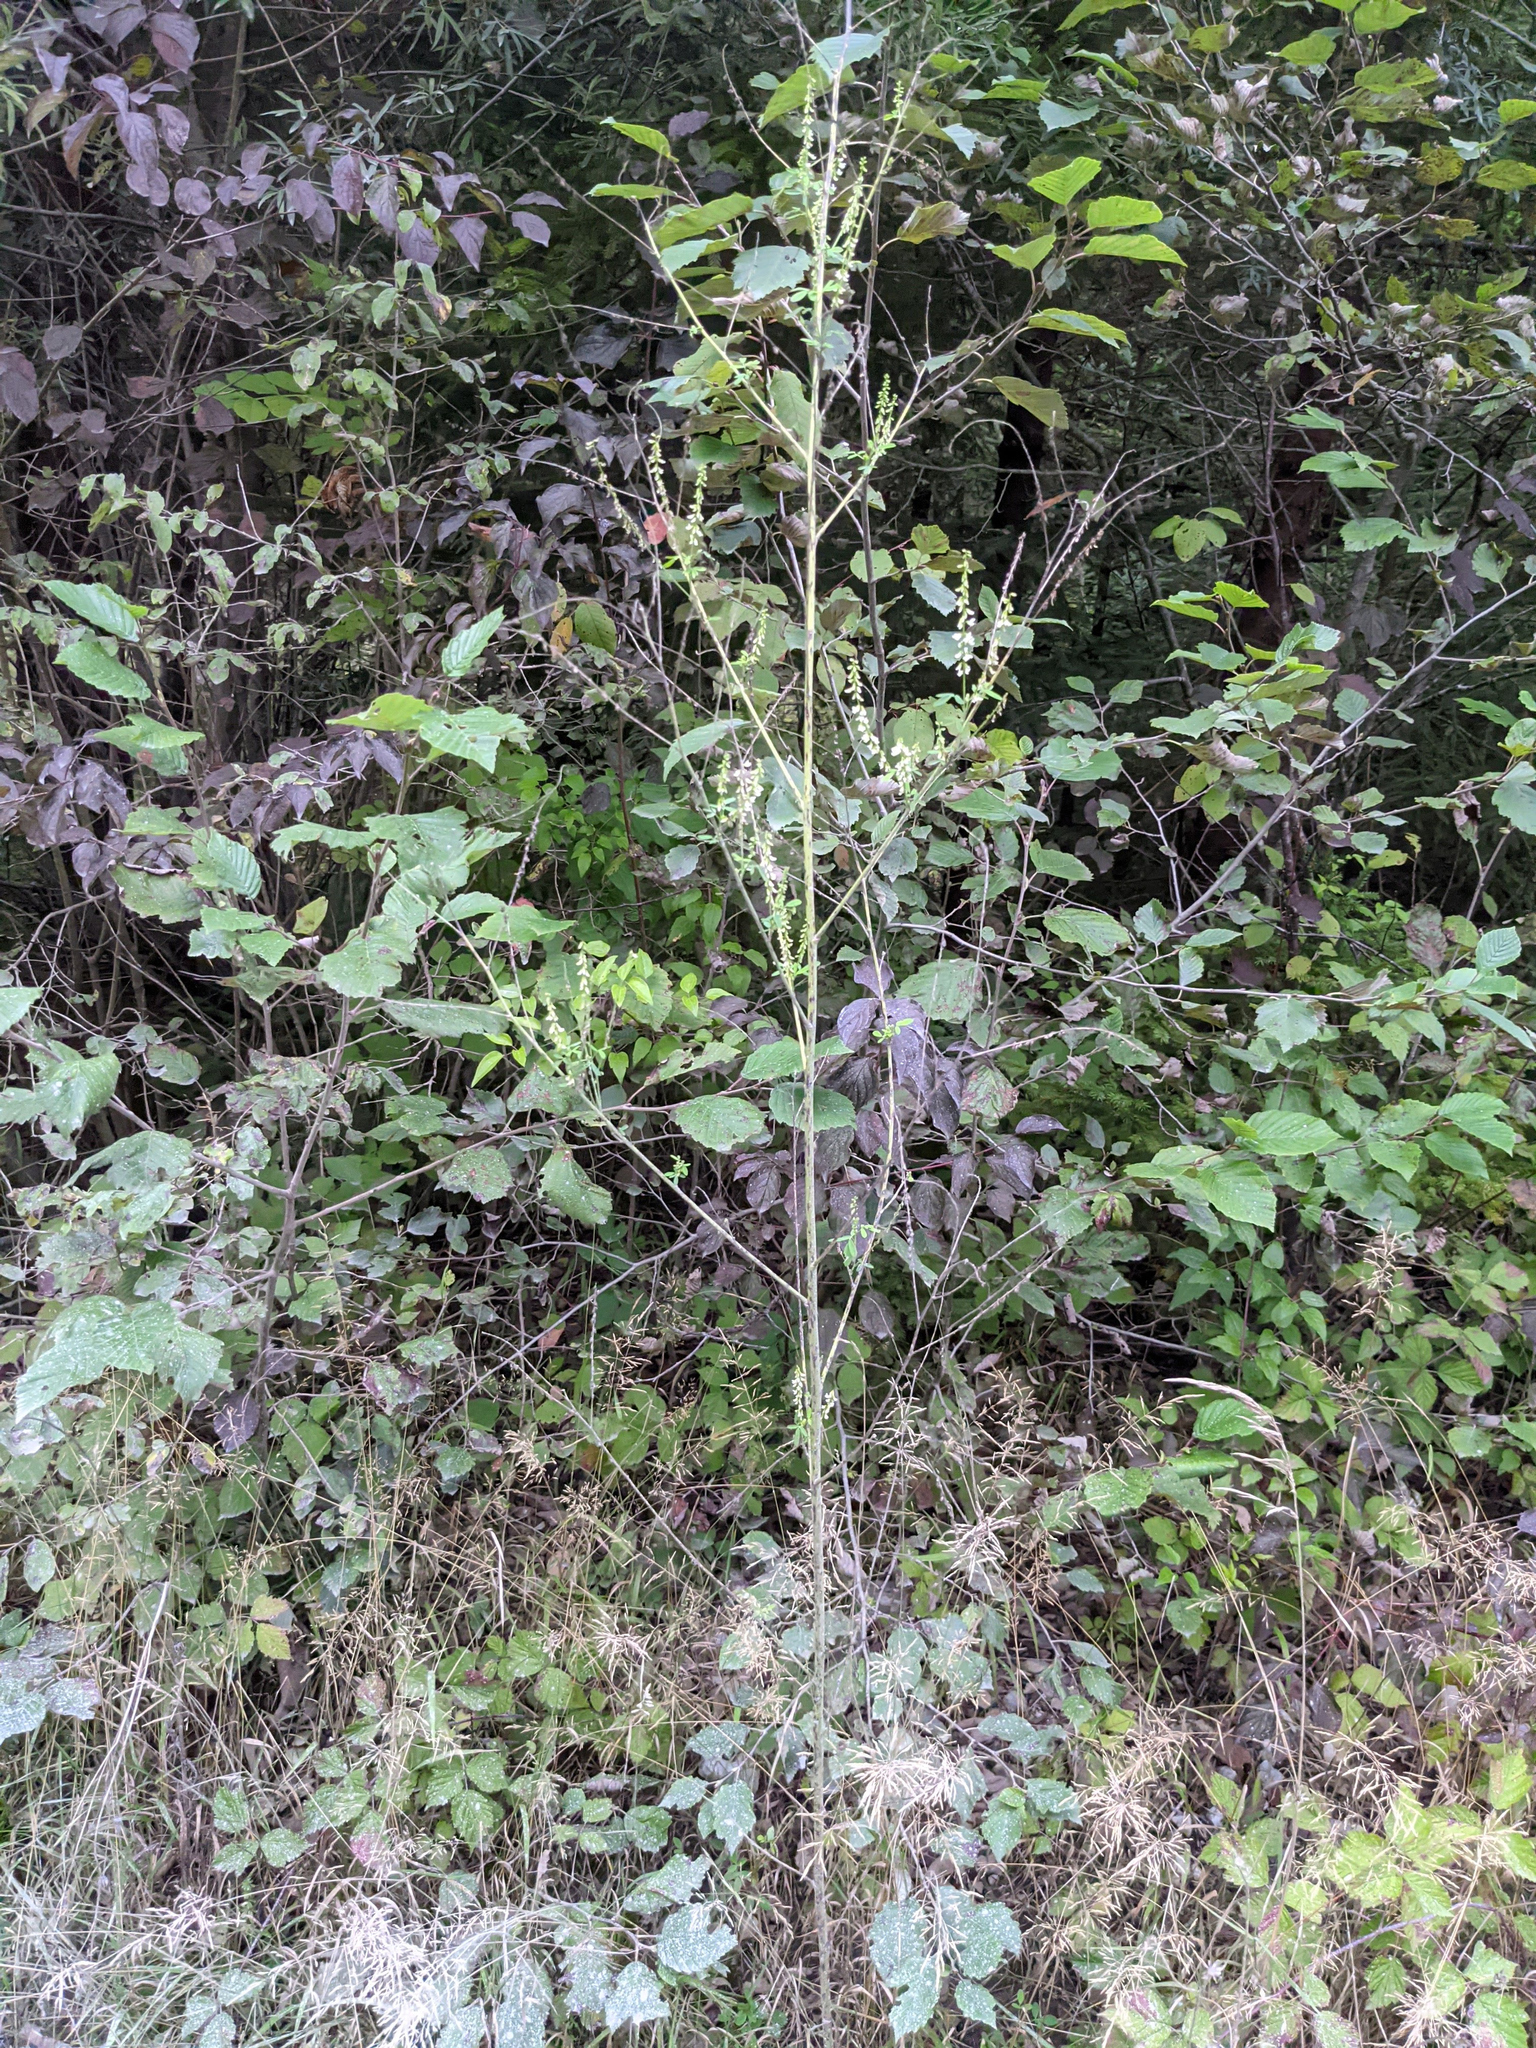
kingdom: Plantae
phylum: Tracheophyta
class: Magnoliopsida
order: Fabales
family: Fabaceae
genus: Melilotus
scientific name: Melilotus albus
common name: White melilot
